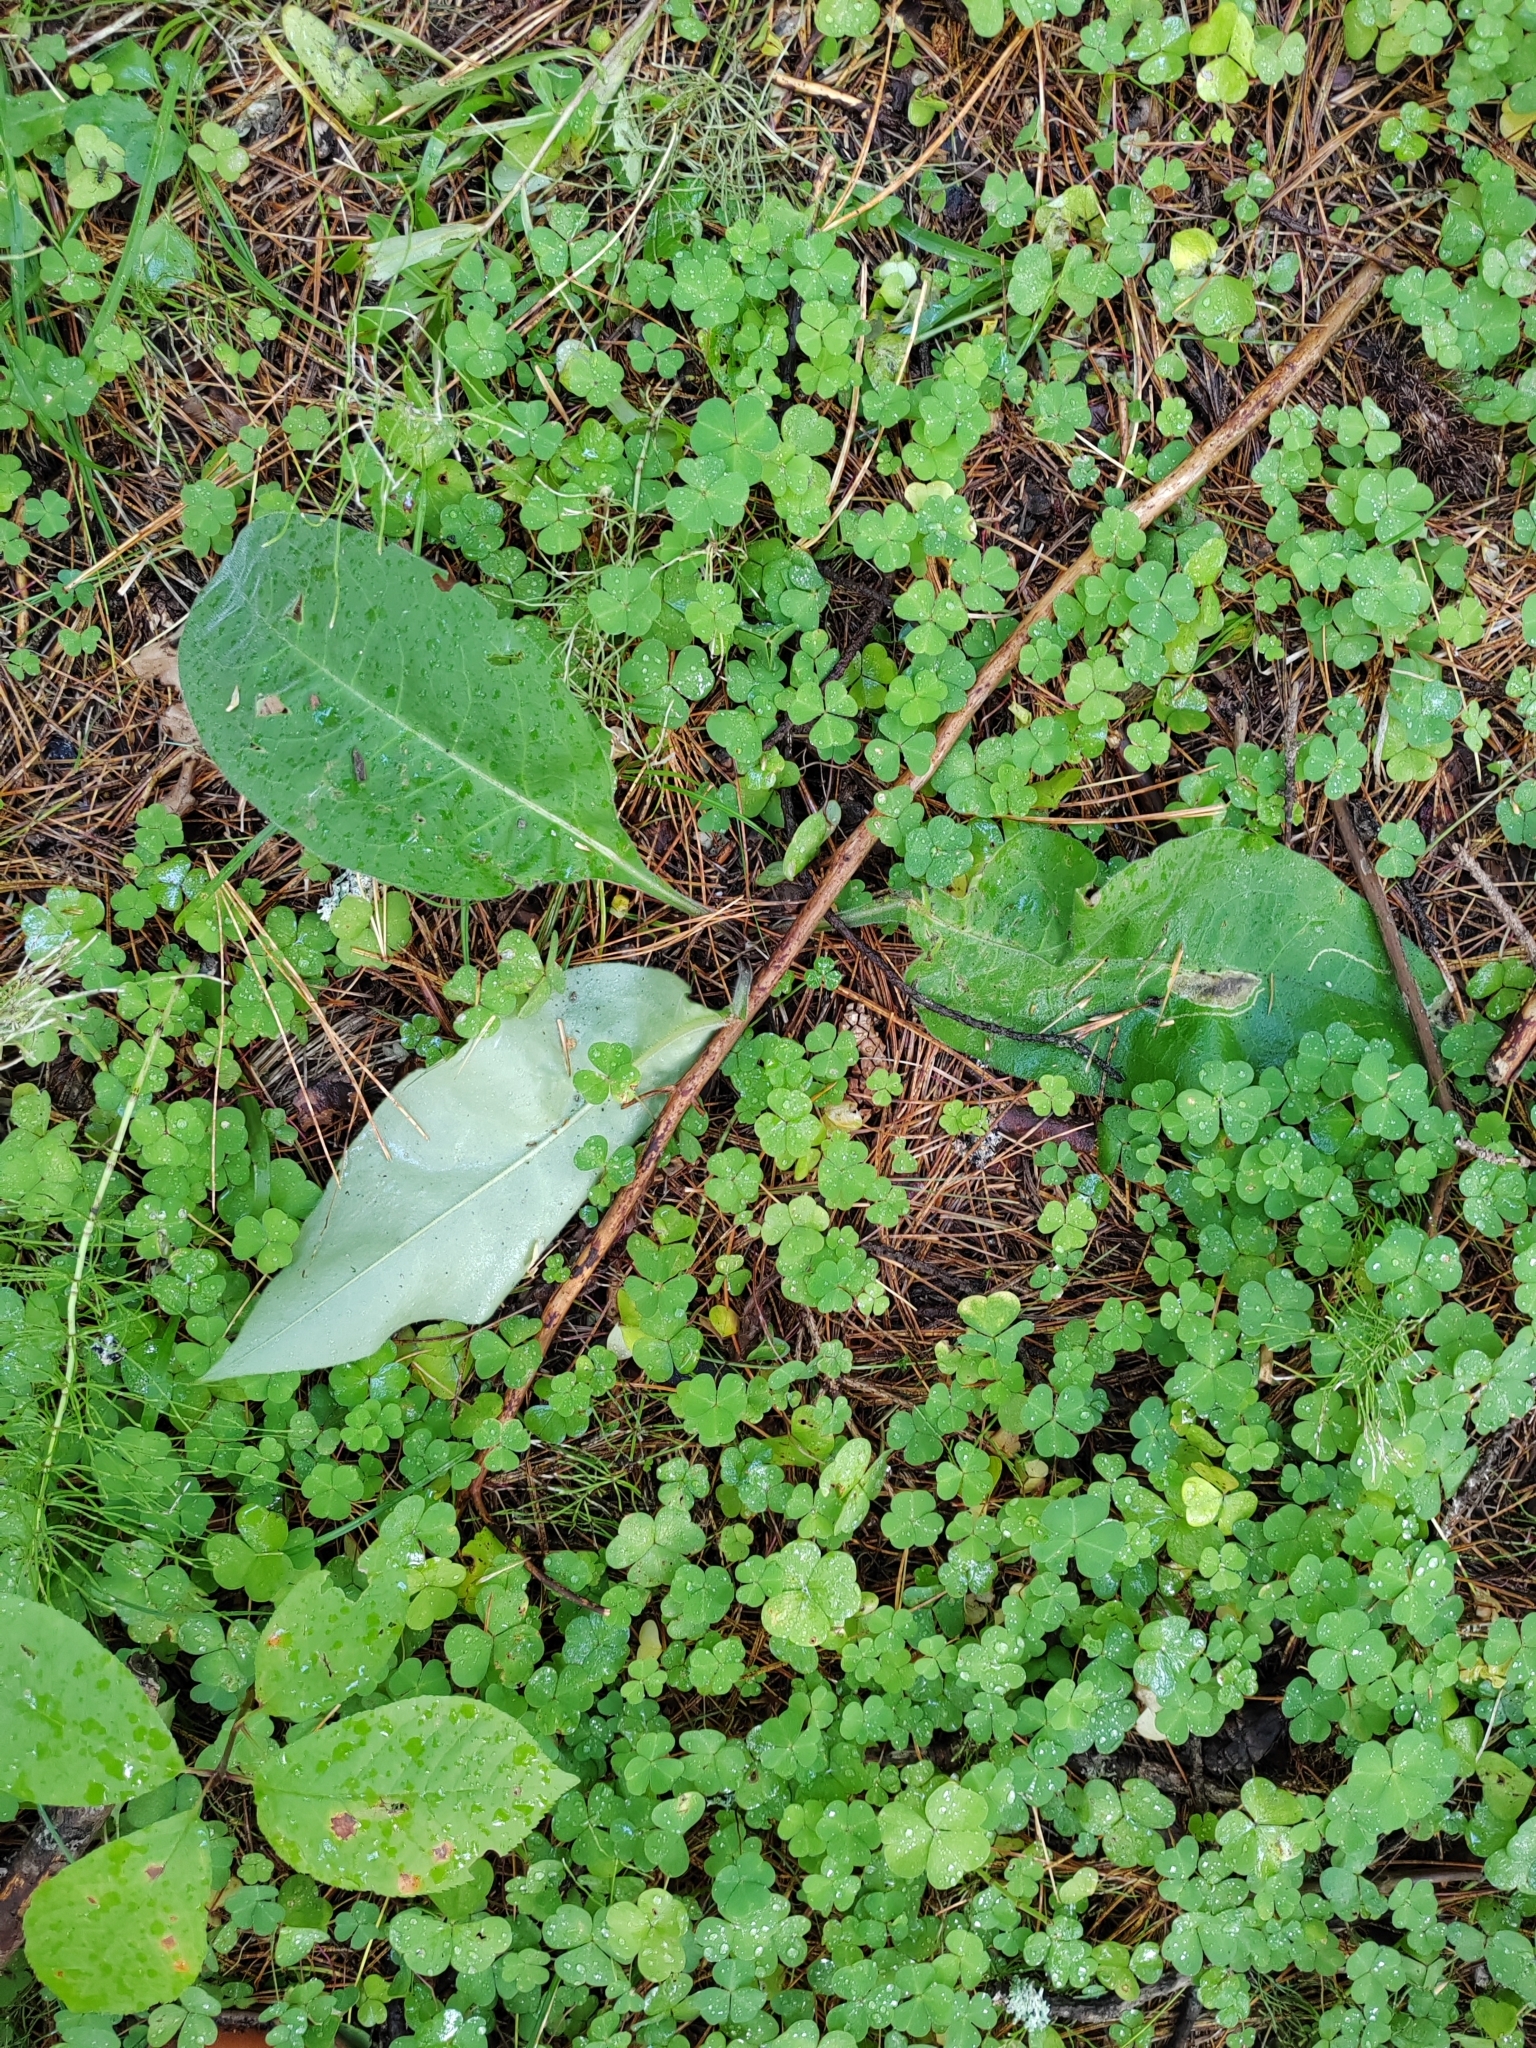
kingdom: Plantae
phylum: Tracheophyta
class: Magnoliopsida
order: Boraginales
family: Boraginaceae
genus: Pulmonaria
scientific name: Pulmonaria mollis
